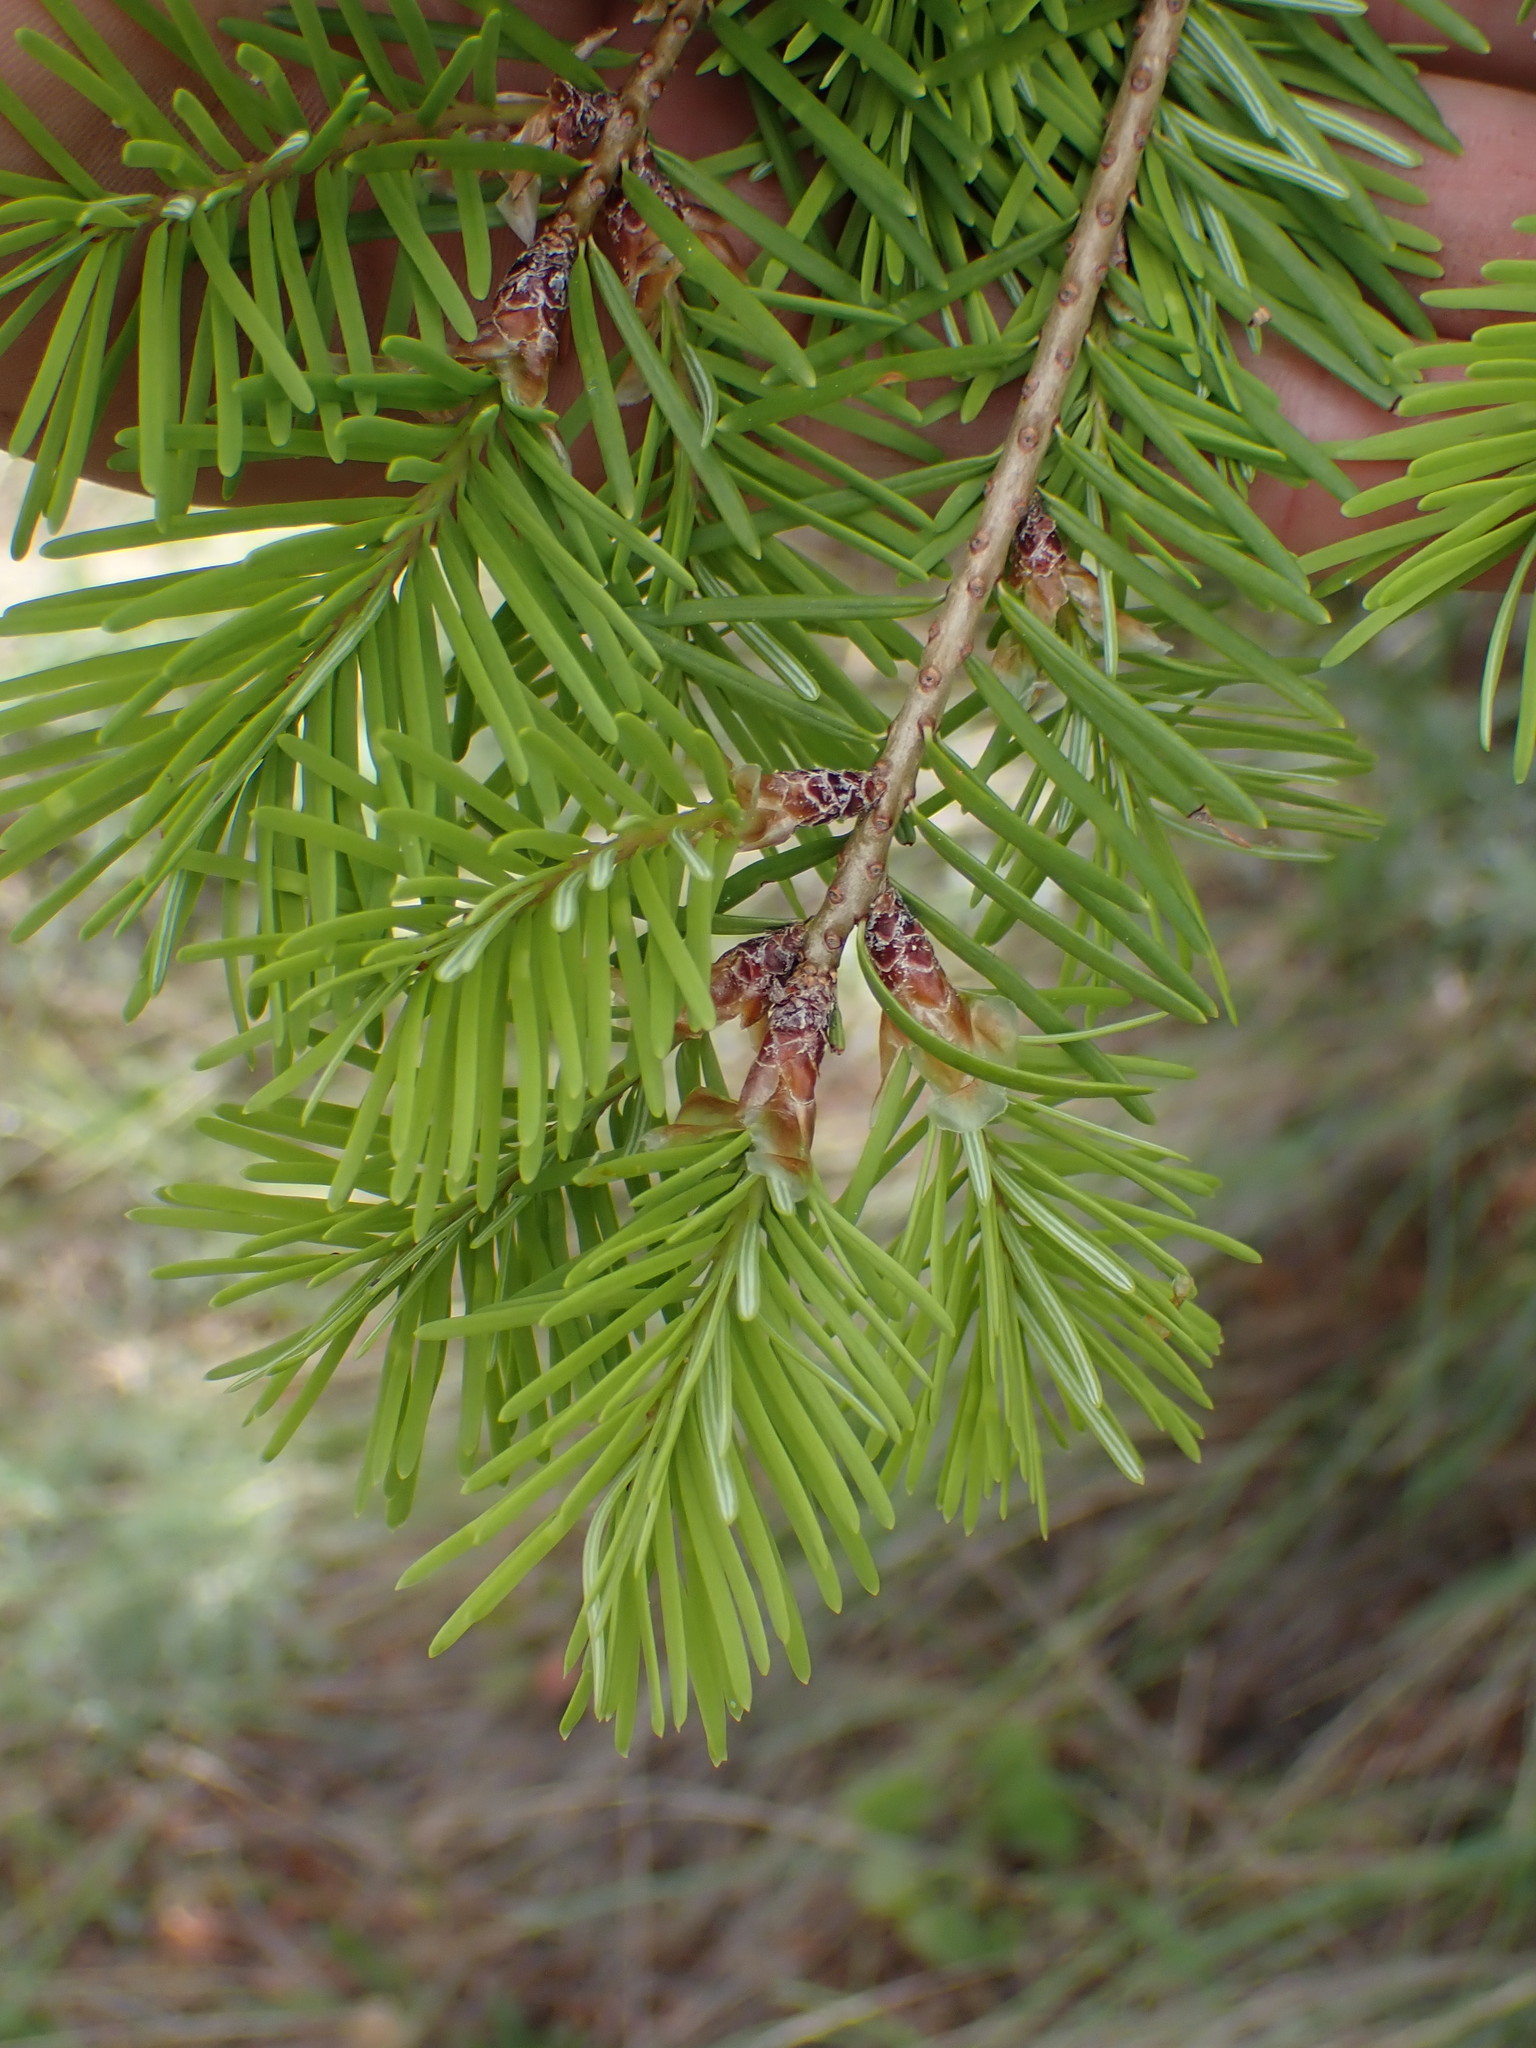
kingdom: Plantae
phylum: Tracheophyta
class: Pinopsida
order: Pinales
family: Pinaceae
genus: Pseudotsuga
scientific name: Pseudotsuga menziesii
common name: Douglas fir
